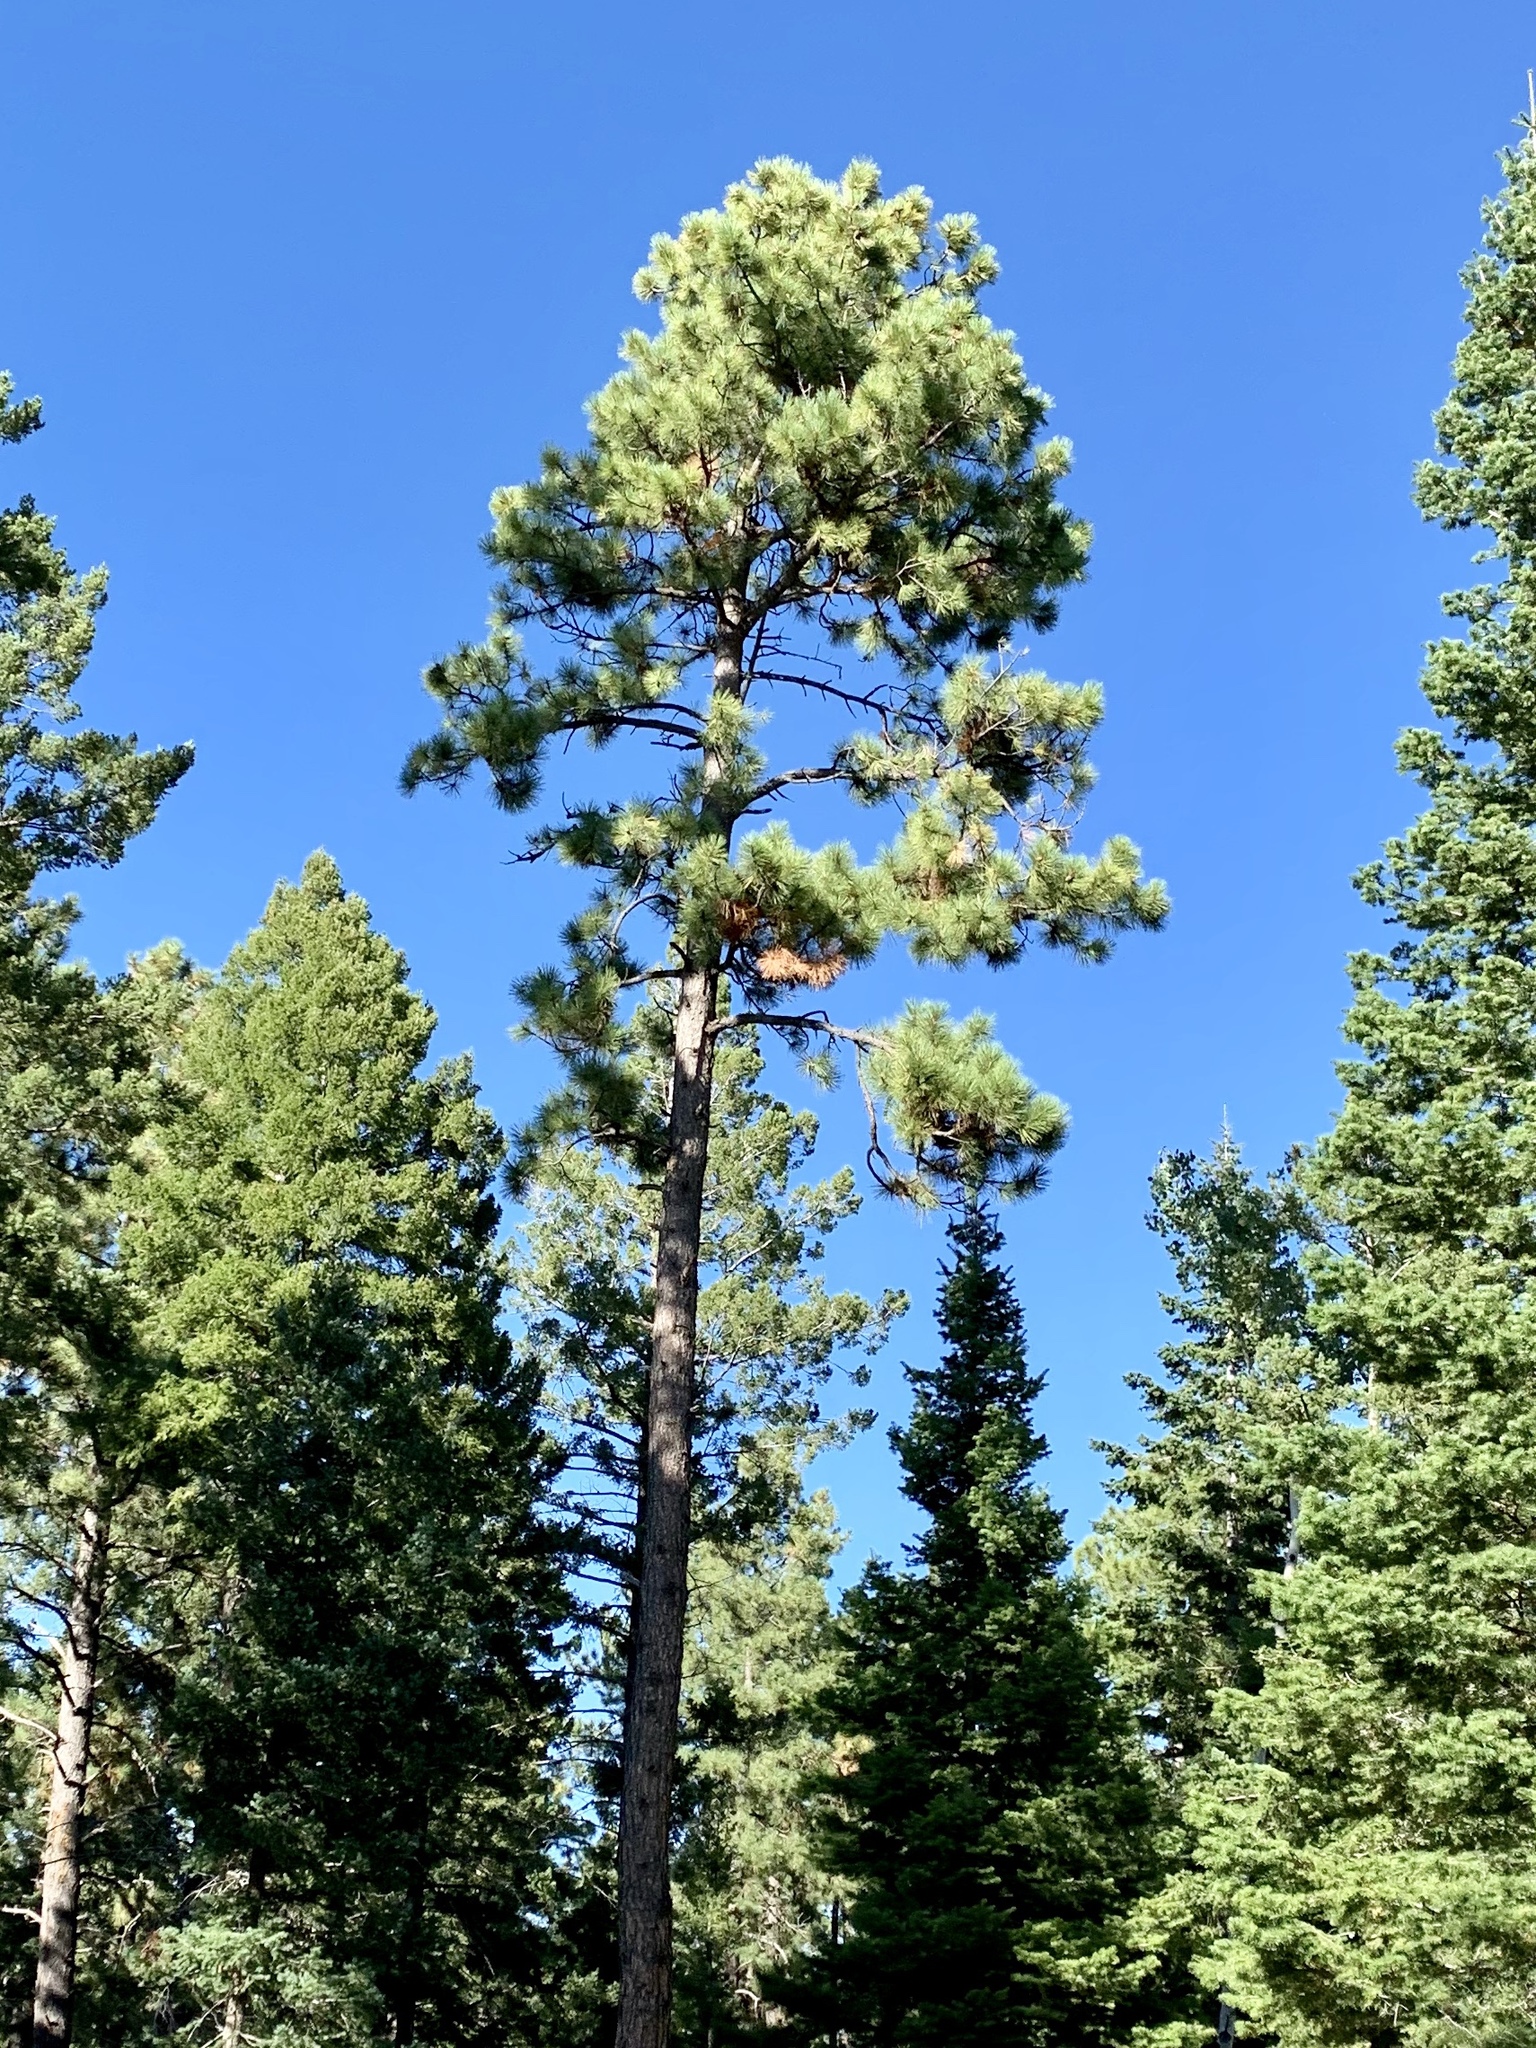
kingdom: Plantae
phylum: Tracheophyta
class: Pinopsida
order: Pinales
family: Pinaceae
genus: Pinus
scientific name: Pinus ponderosa
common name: Western yellow-pine
